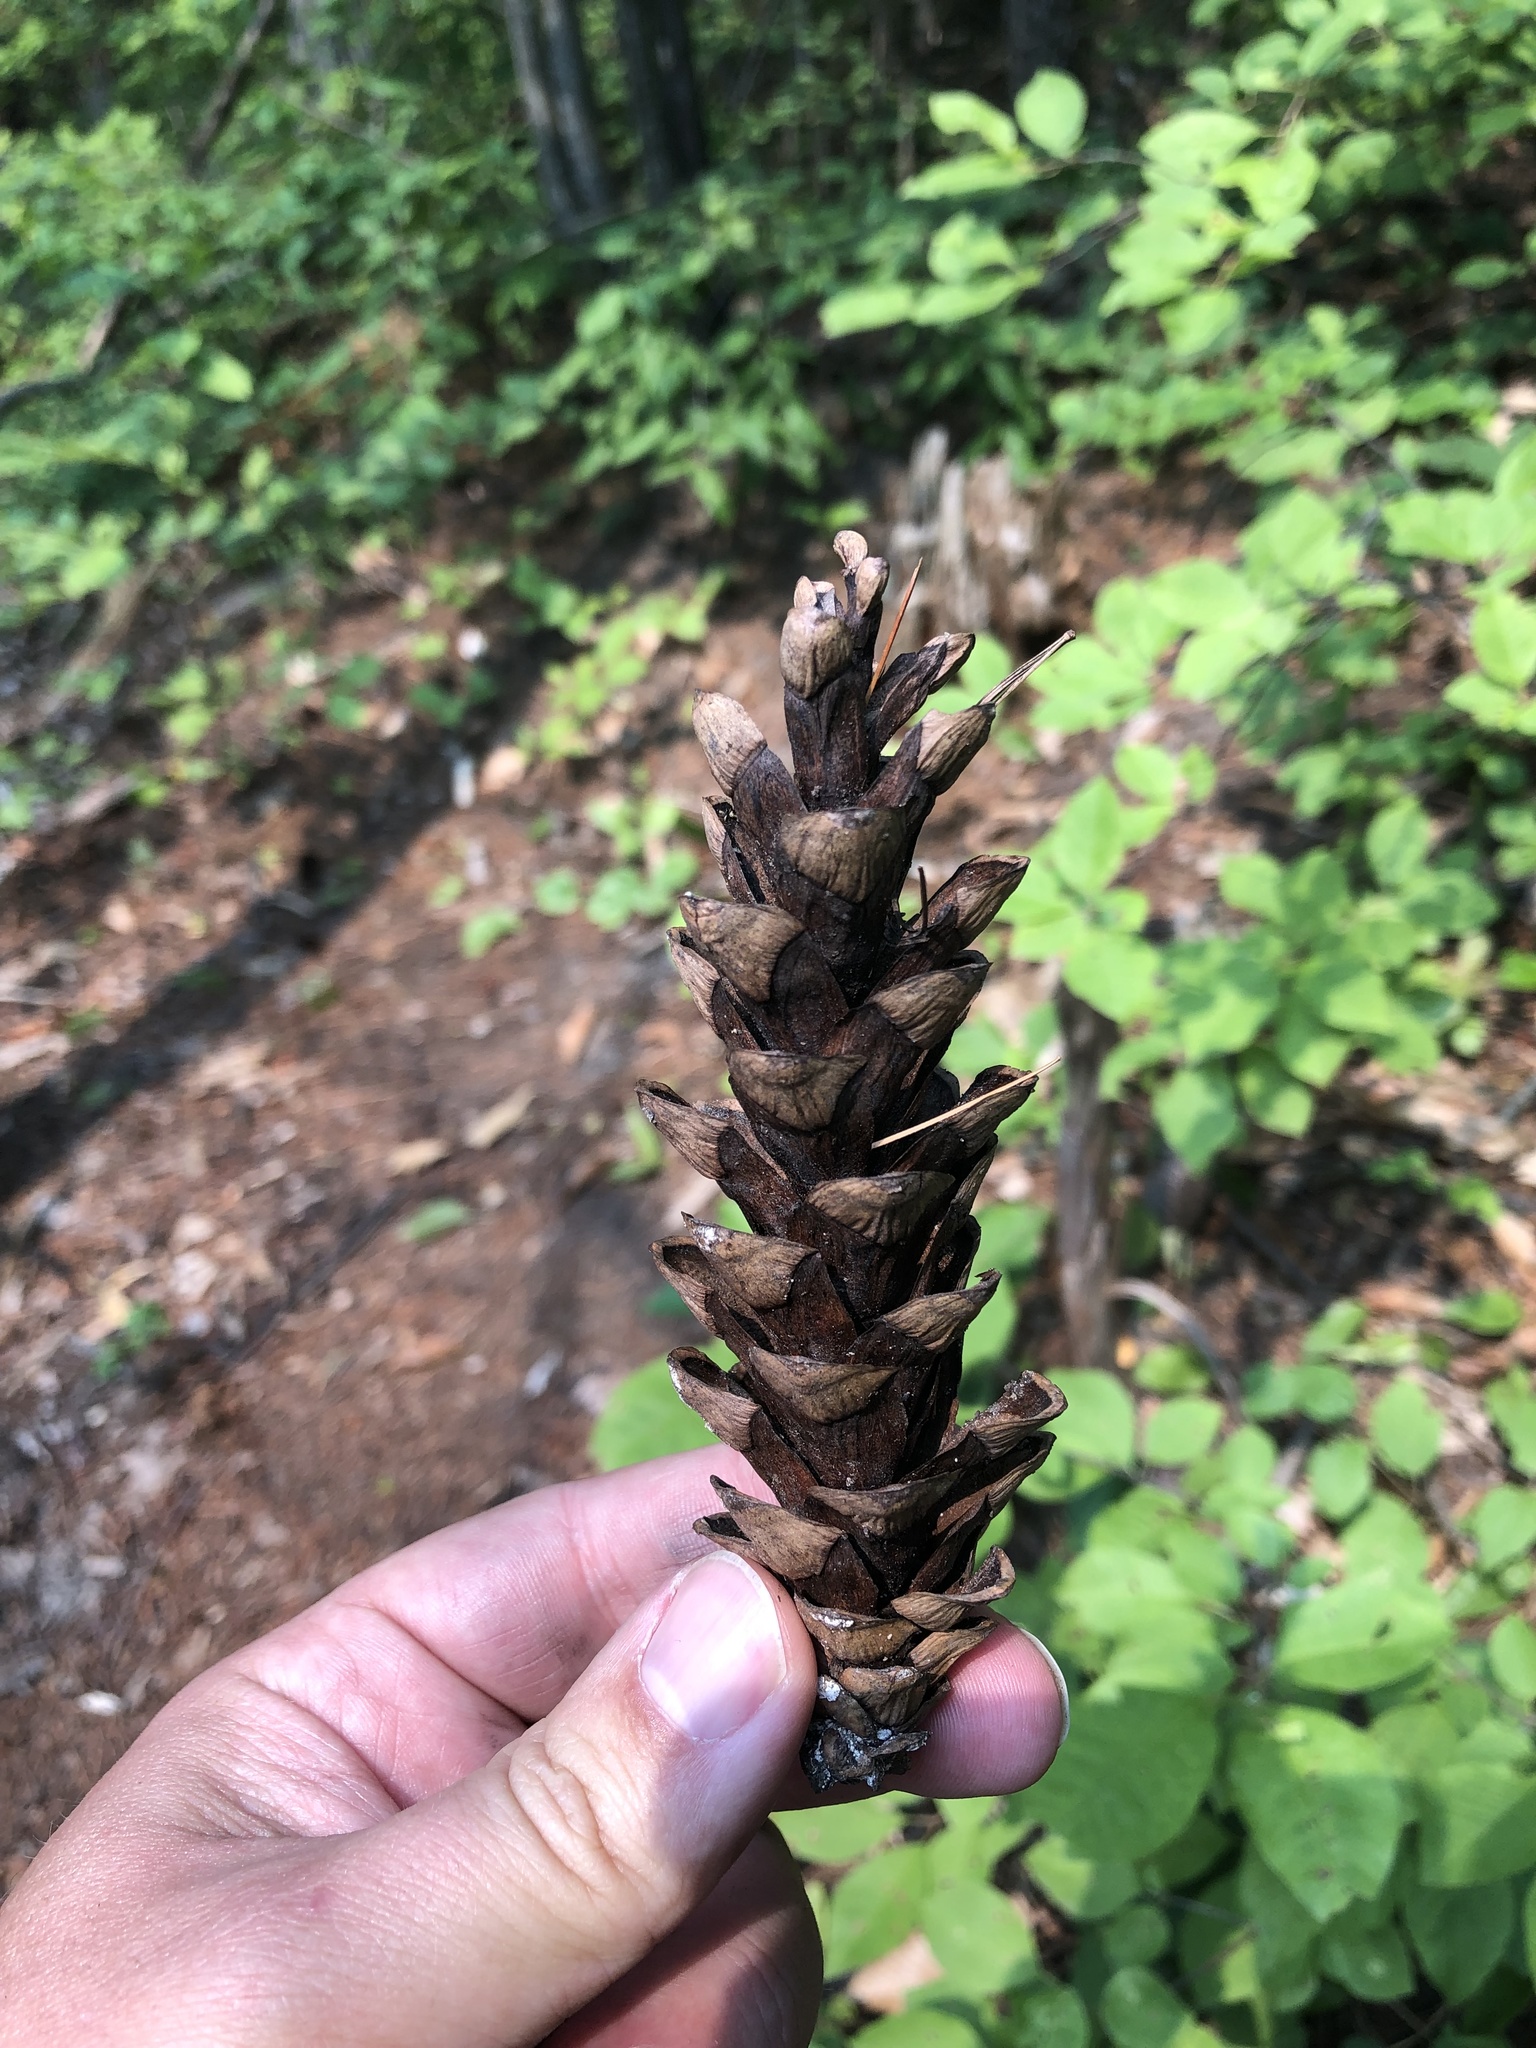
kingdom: Plantae
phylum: Tracheophyta
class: Pinopsida
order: Pinales
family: Pinaceae
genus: Pinus
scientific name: Pinus strobus
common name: Weymouth pine
